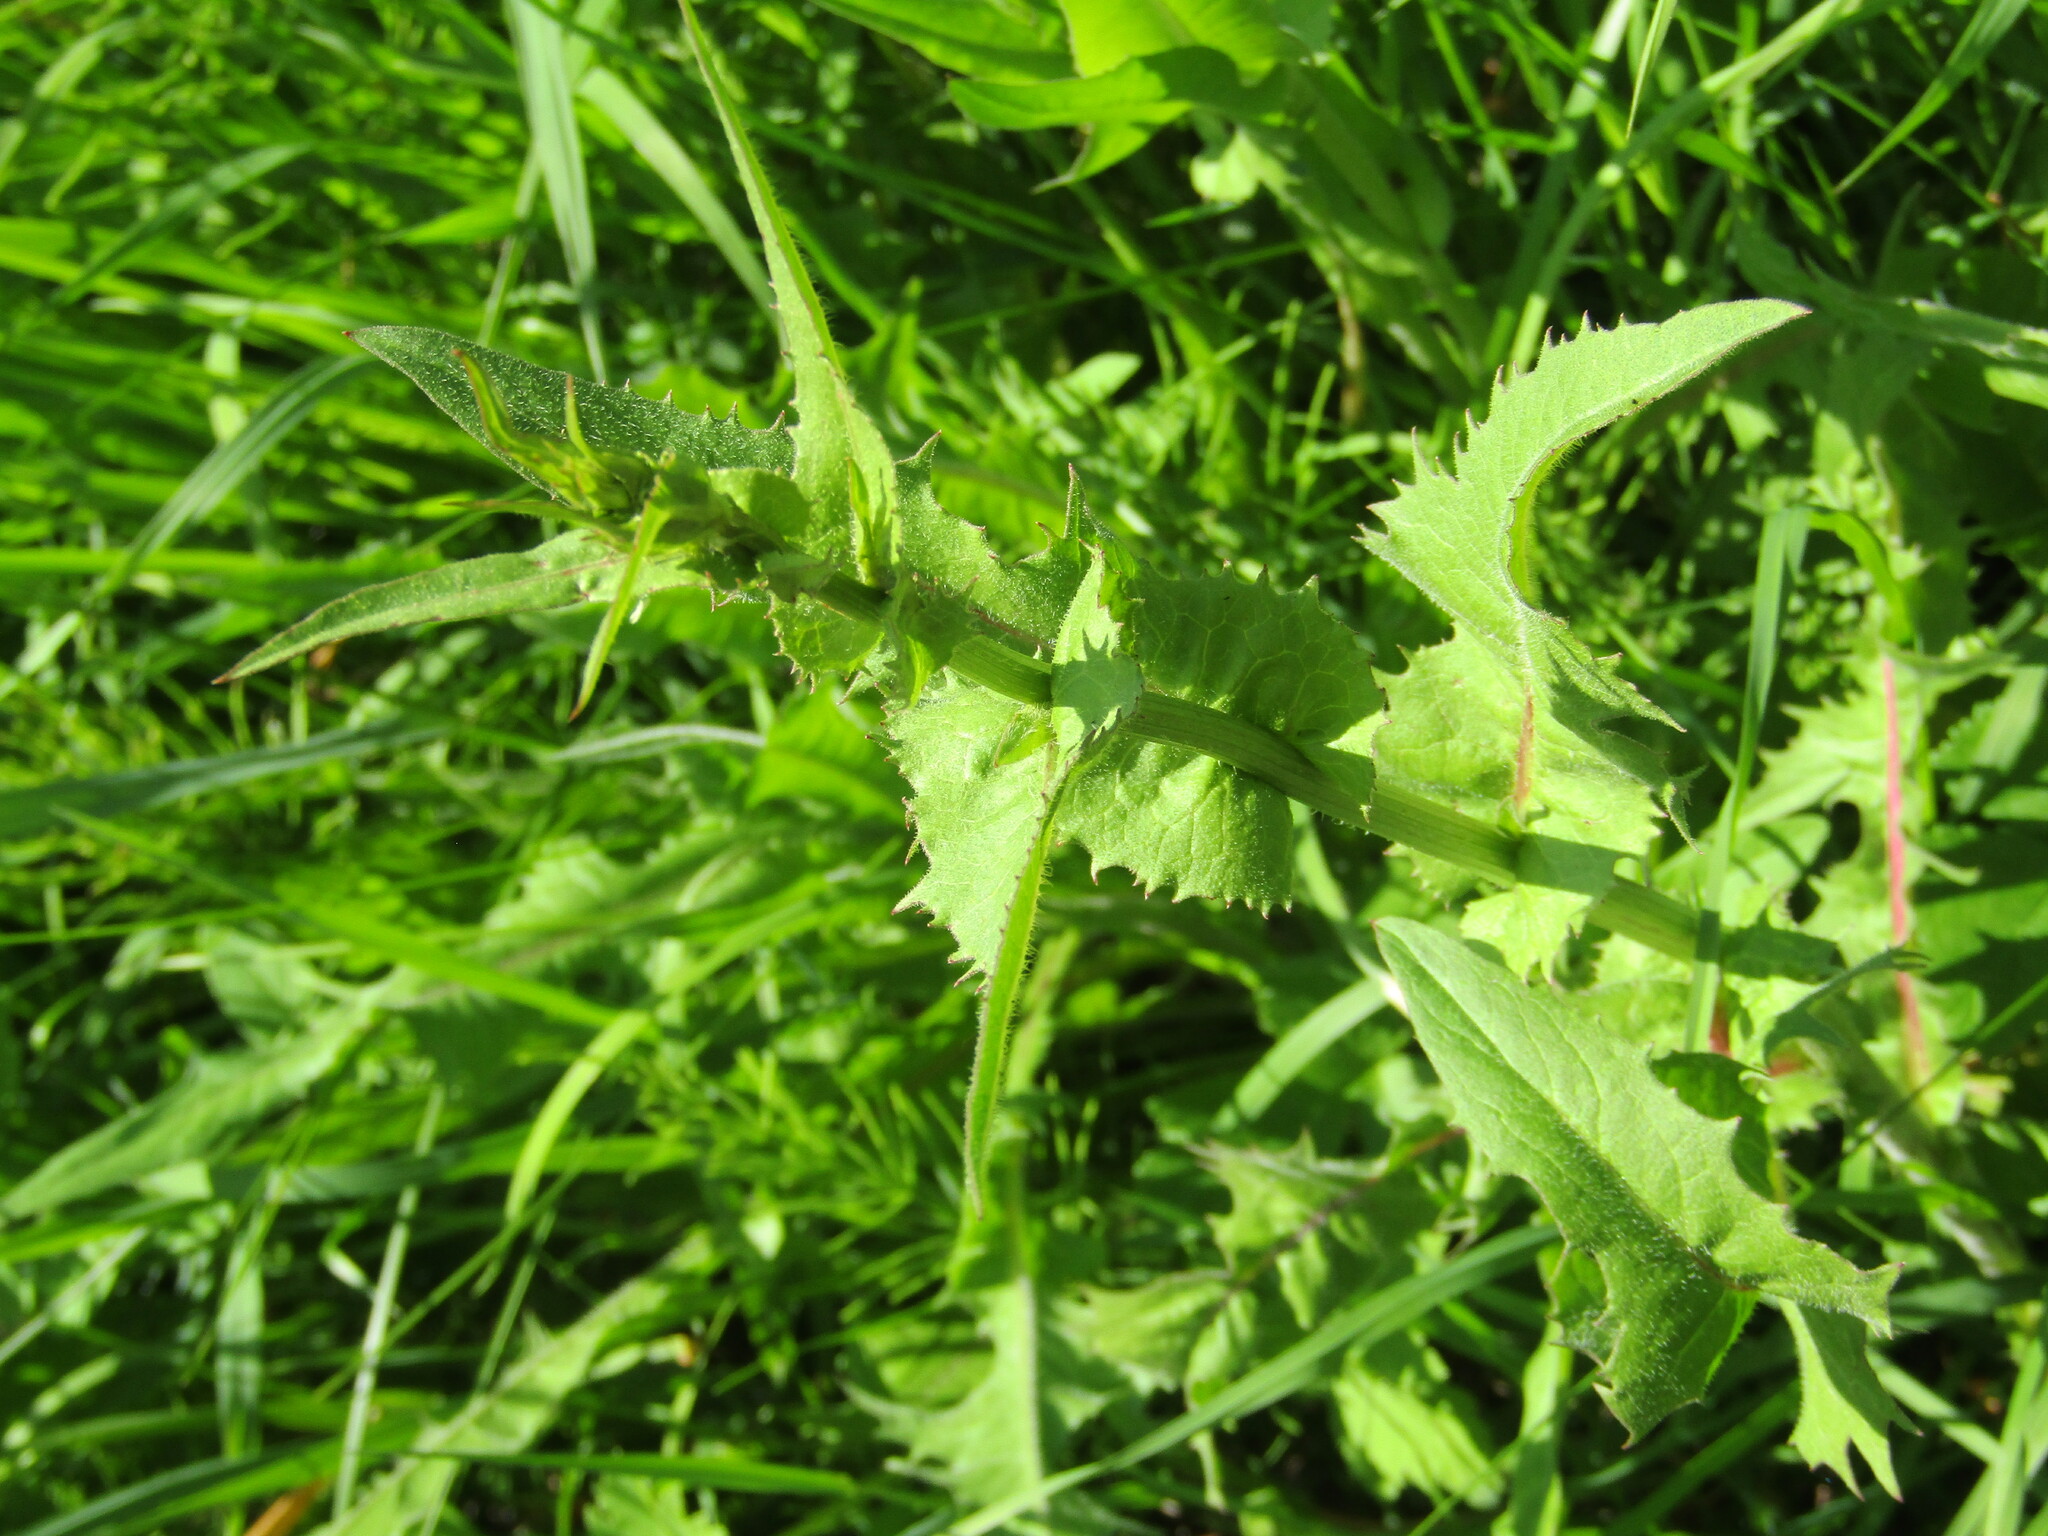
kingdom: Plantae
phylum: Tracheophyta
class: Magnoliopsida
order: Asterales
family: Asteraceae
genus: Cichorium
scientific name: Cichorium intybus
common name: Chicory
